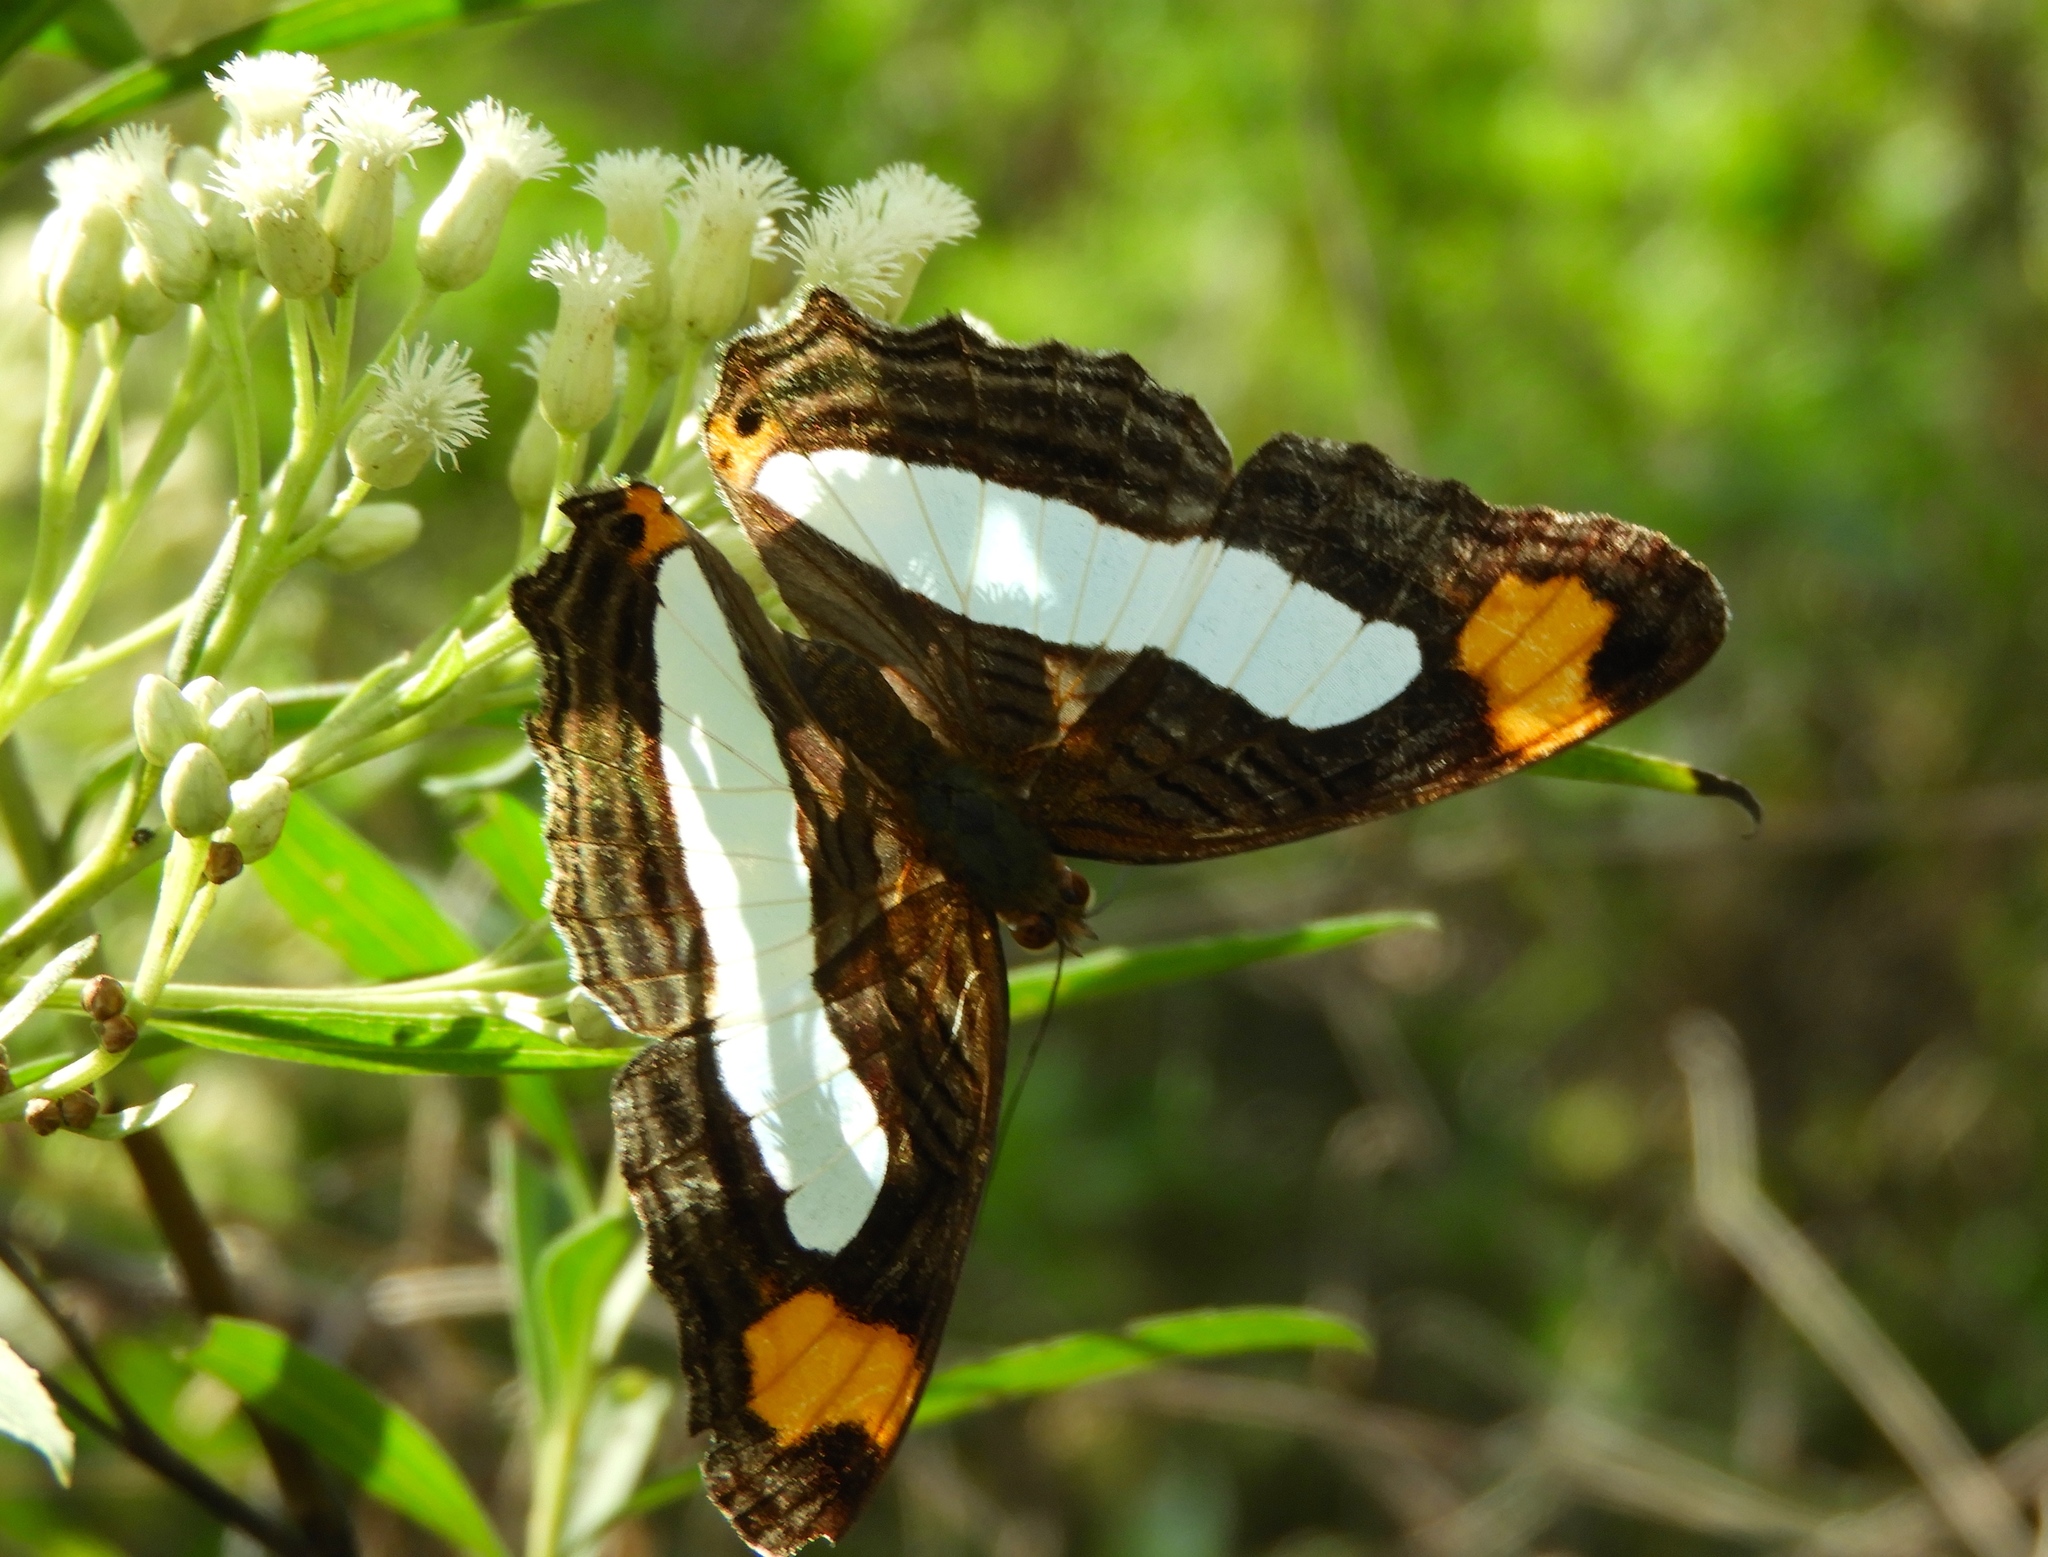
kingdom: Animalia
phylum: Arthropoda
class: Insecta
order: Lepidoptera
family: Nymphalidae
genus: Limenitis
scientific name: Limenitis iphiclus
